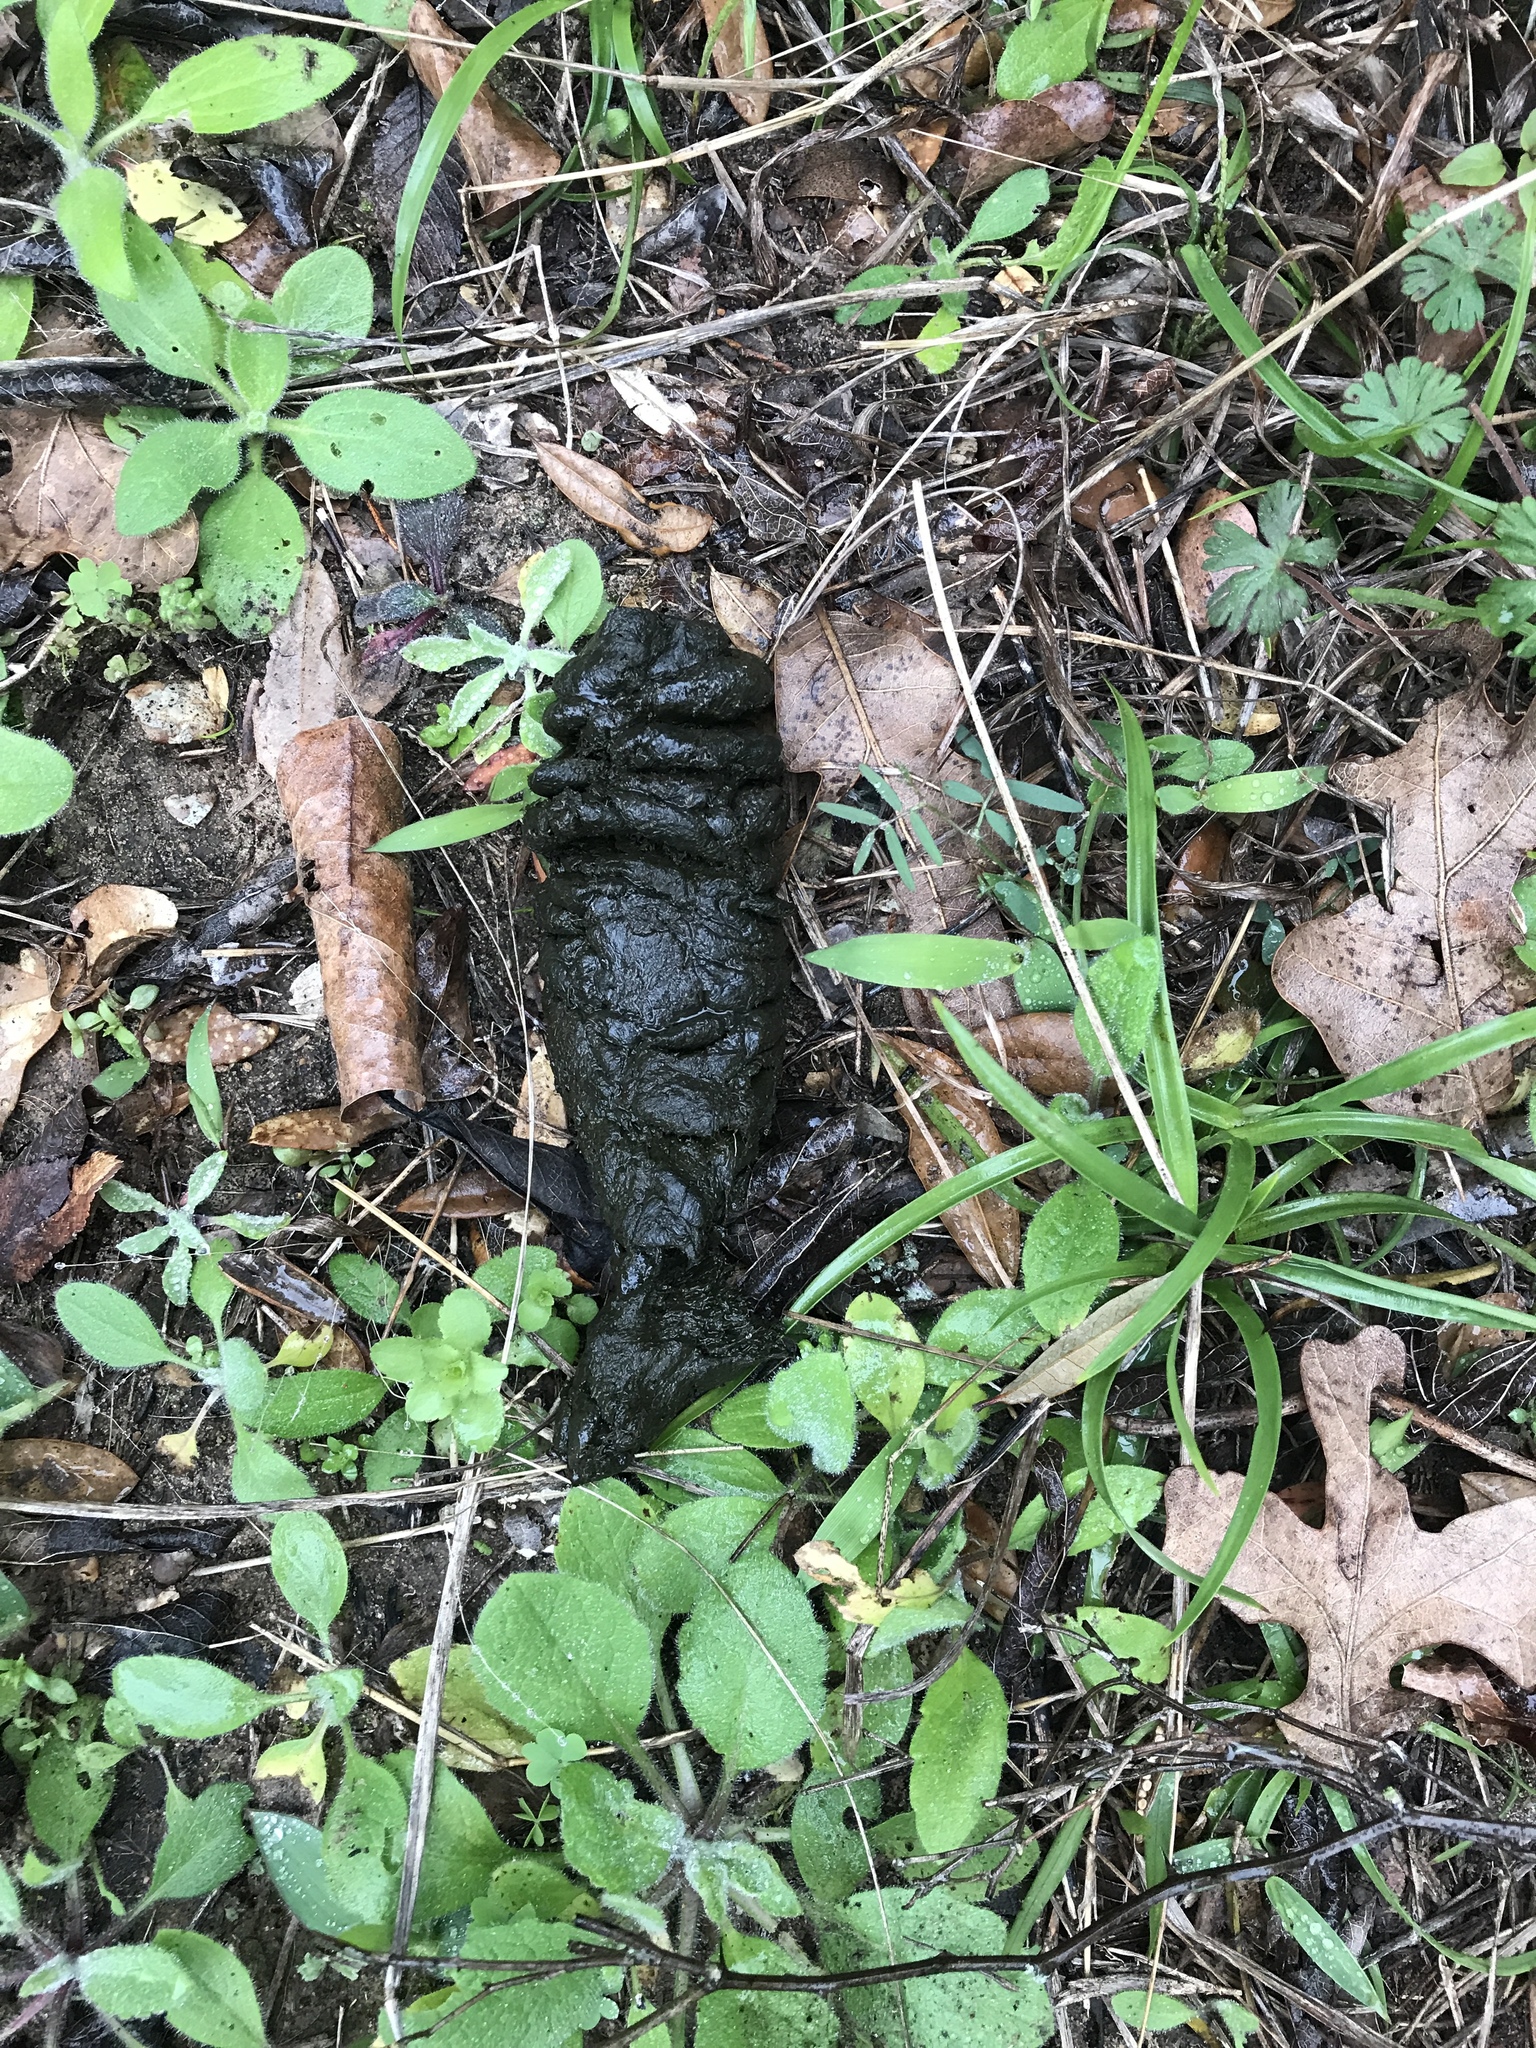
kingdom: Animalia
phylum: Chordata
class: Mammalia
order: Artiodactyla
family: Cervidae
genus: Odocoileus
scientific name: Odocoileus virginianus
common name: White-tailed deer
